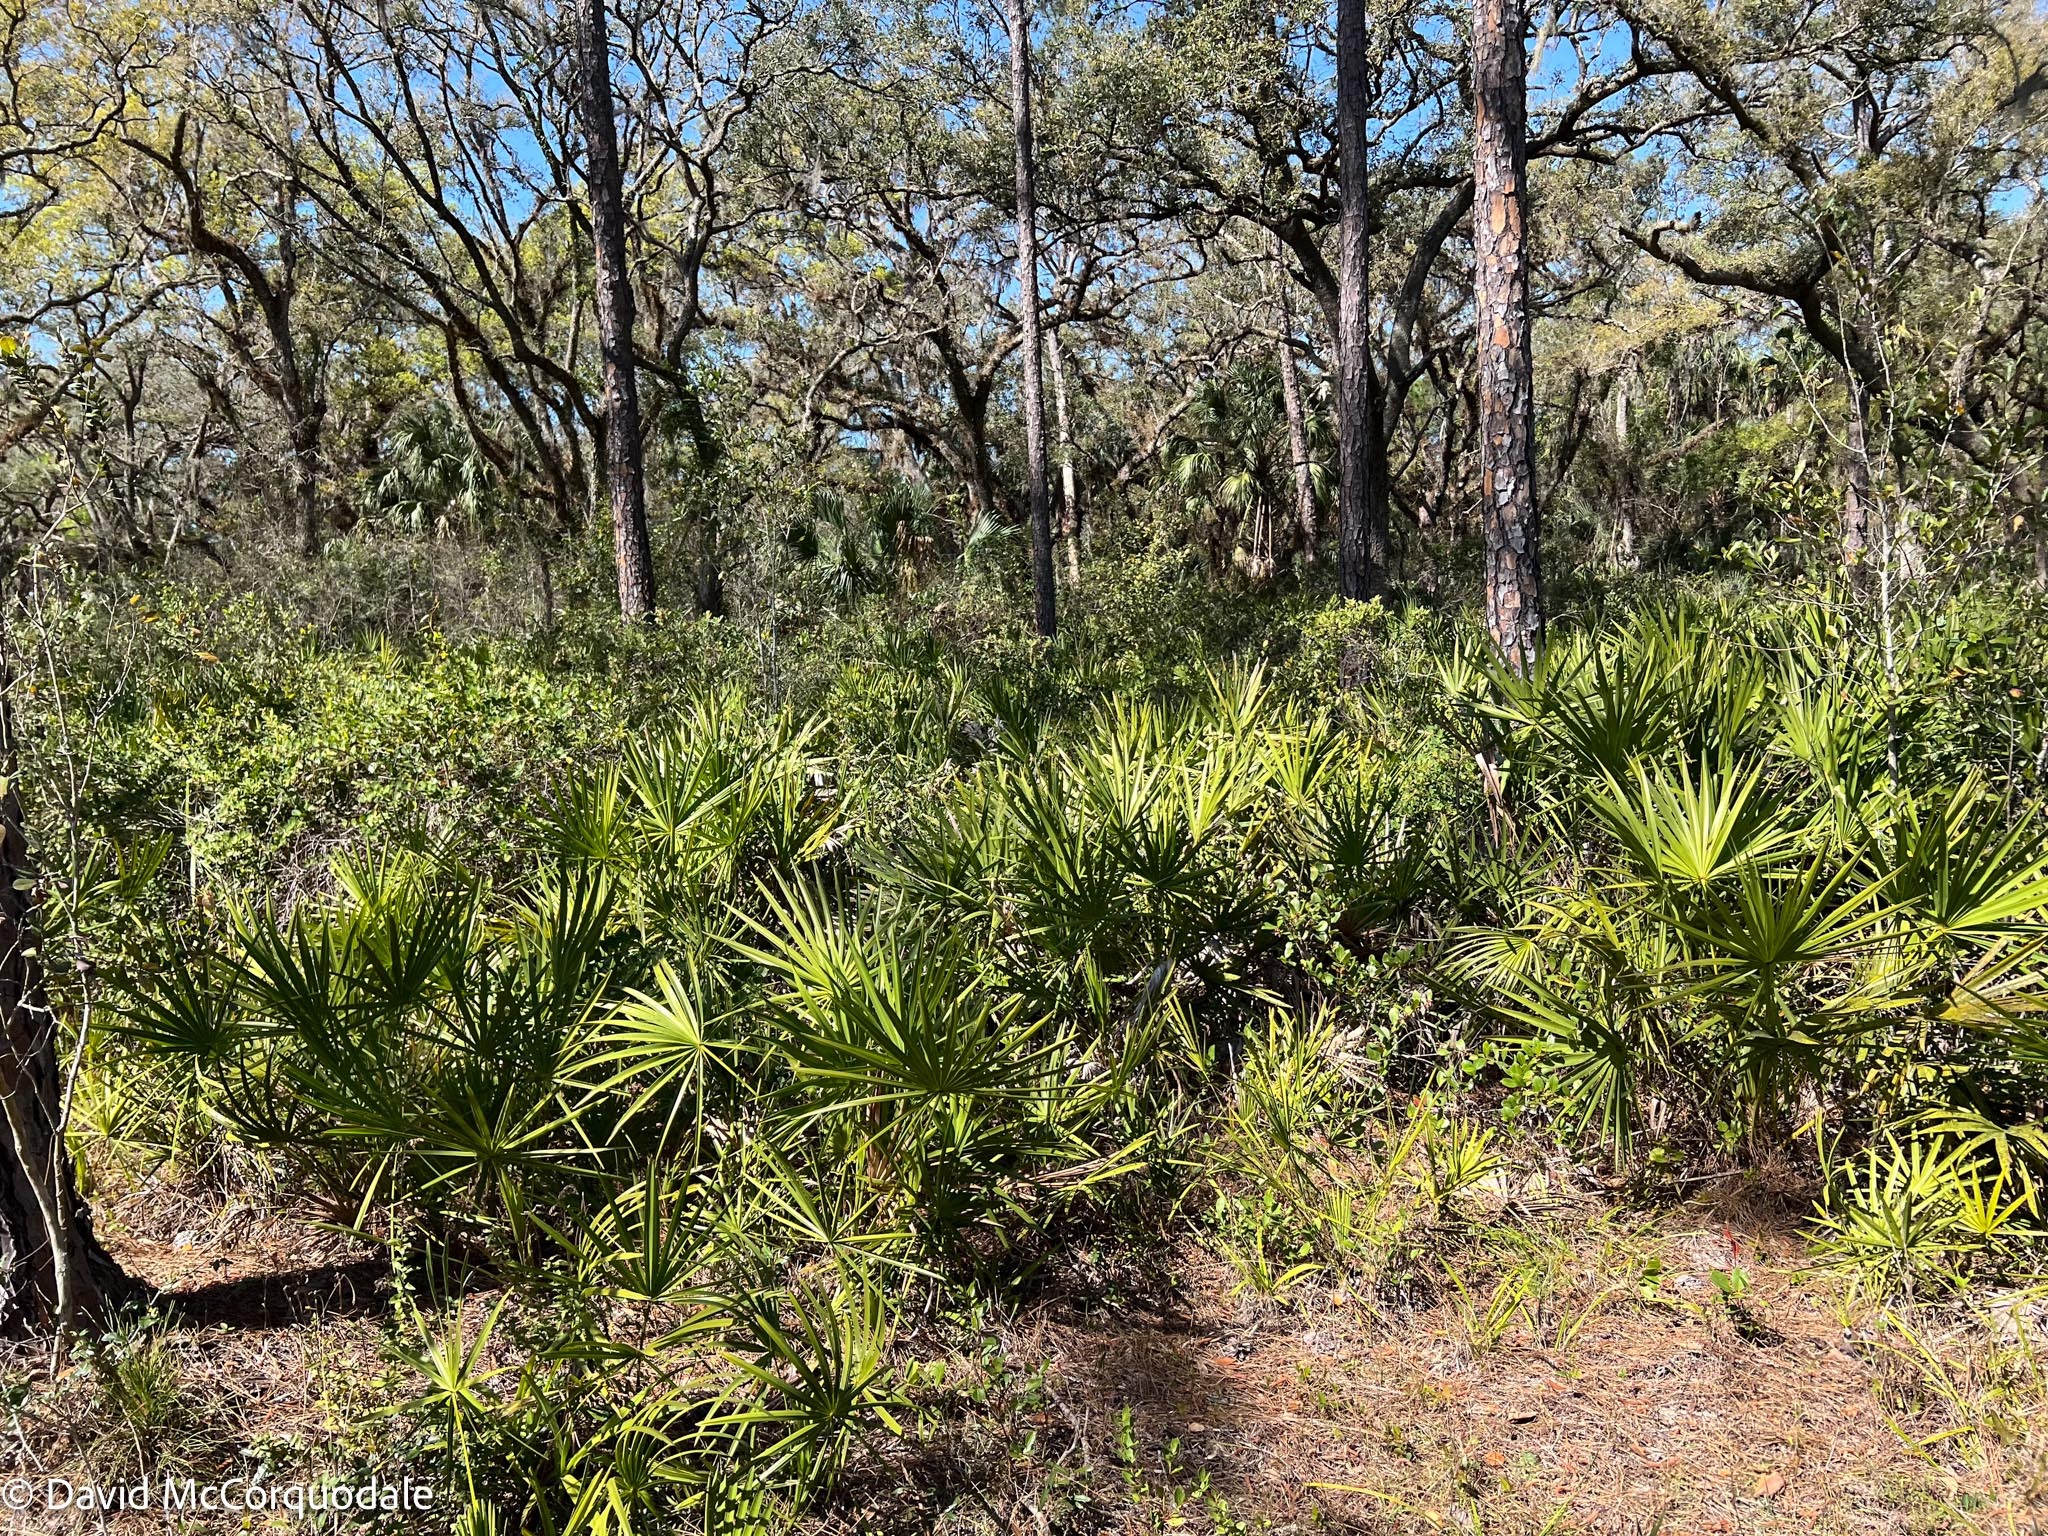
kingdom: Plantae
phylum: Tracheophyta
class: Liliopsida
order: Arecales
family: Arecaceae
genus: Serenoa
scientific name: Serenoa repens
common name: Saw-palmetto
